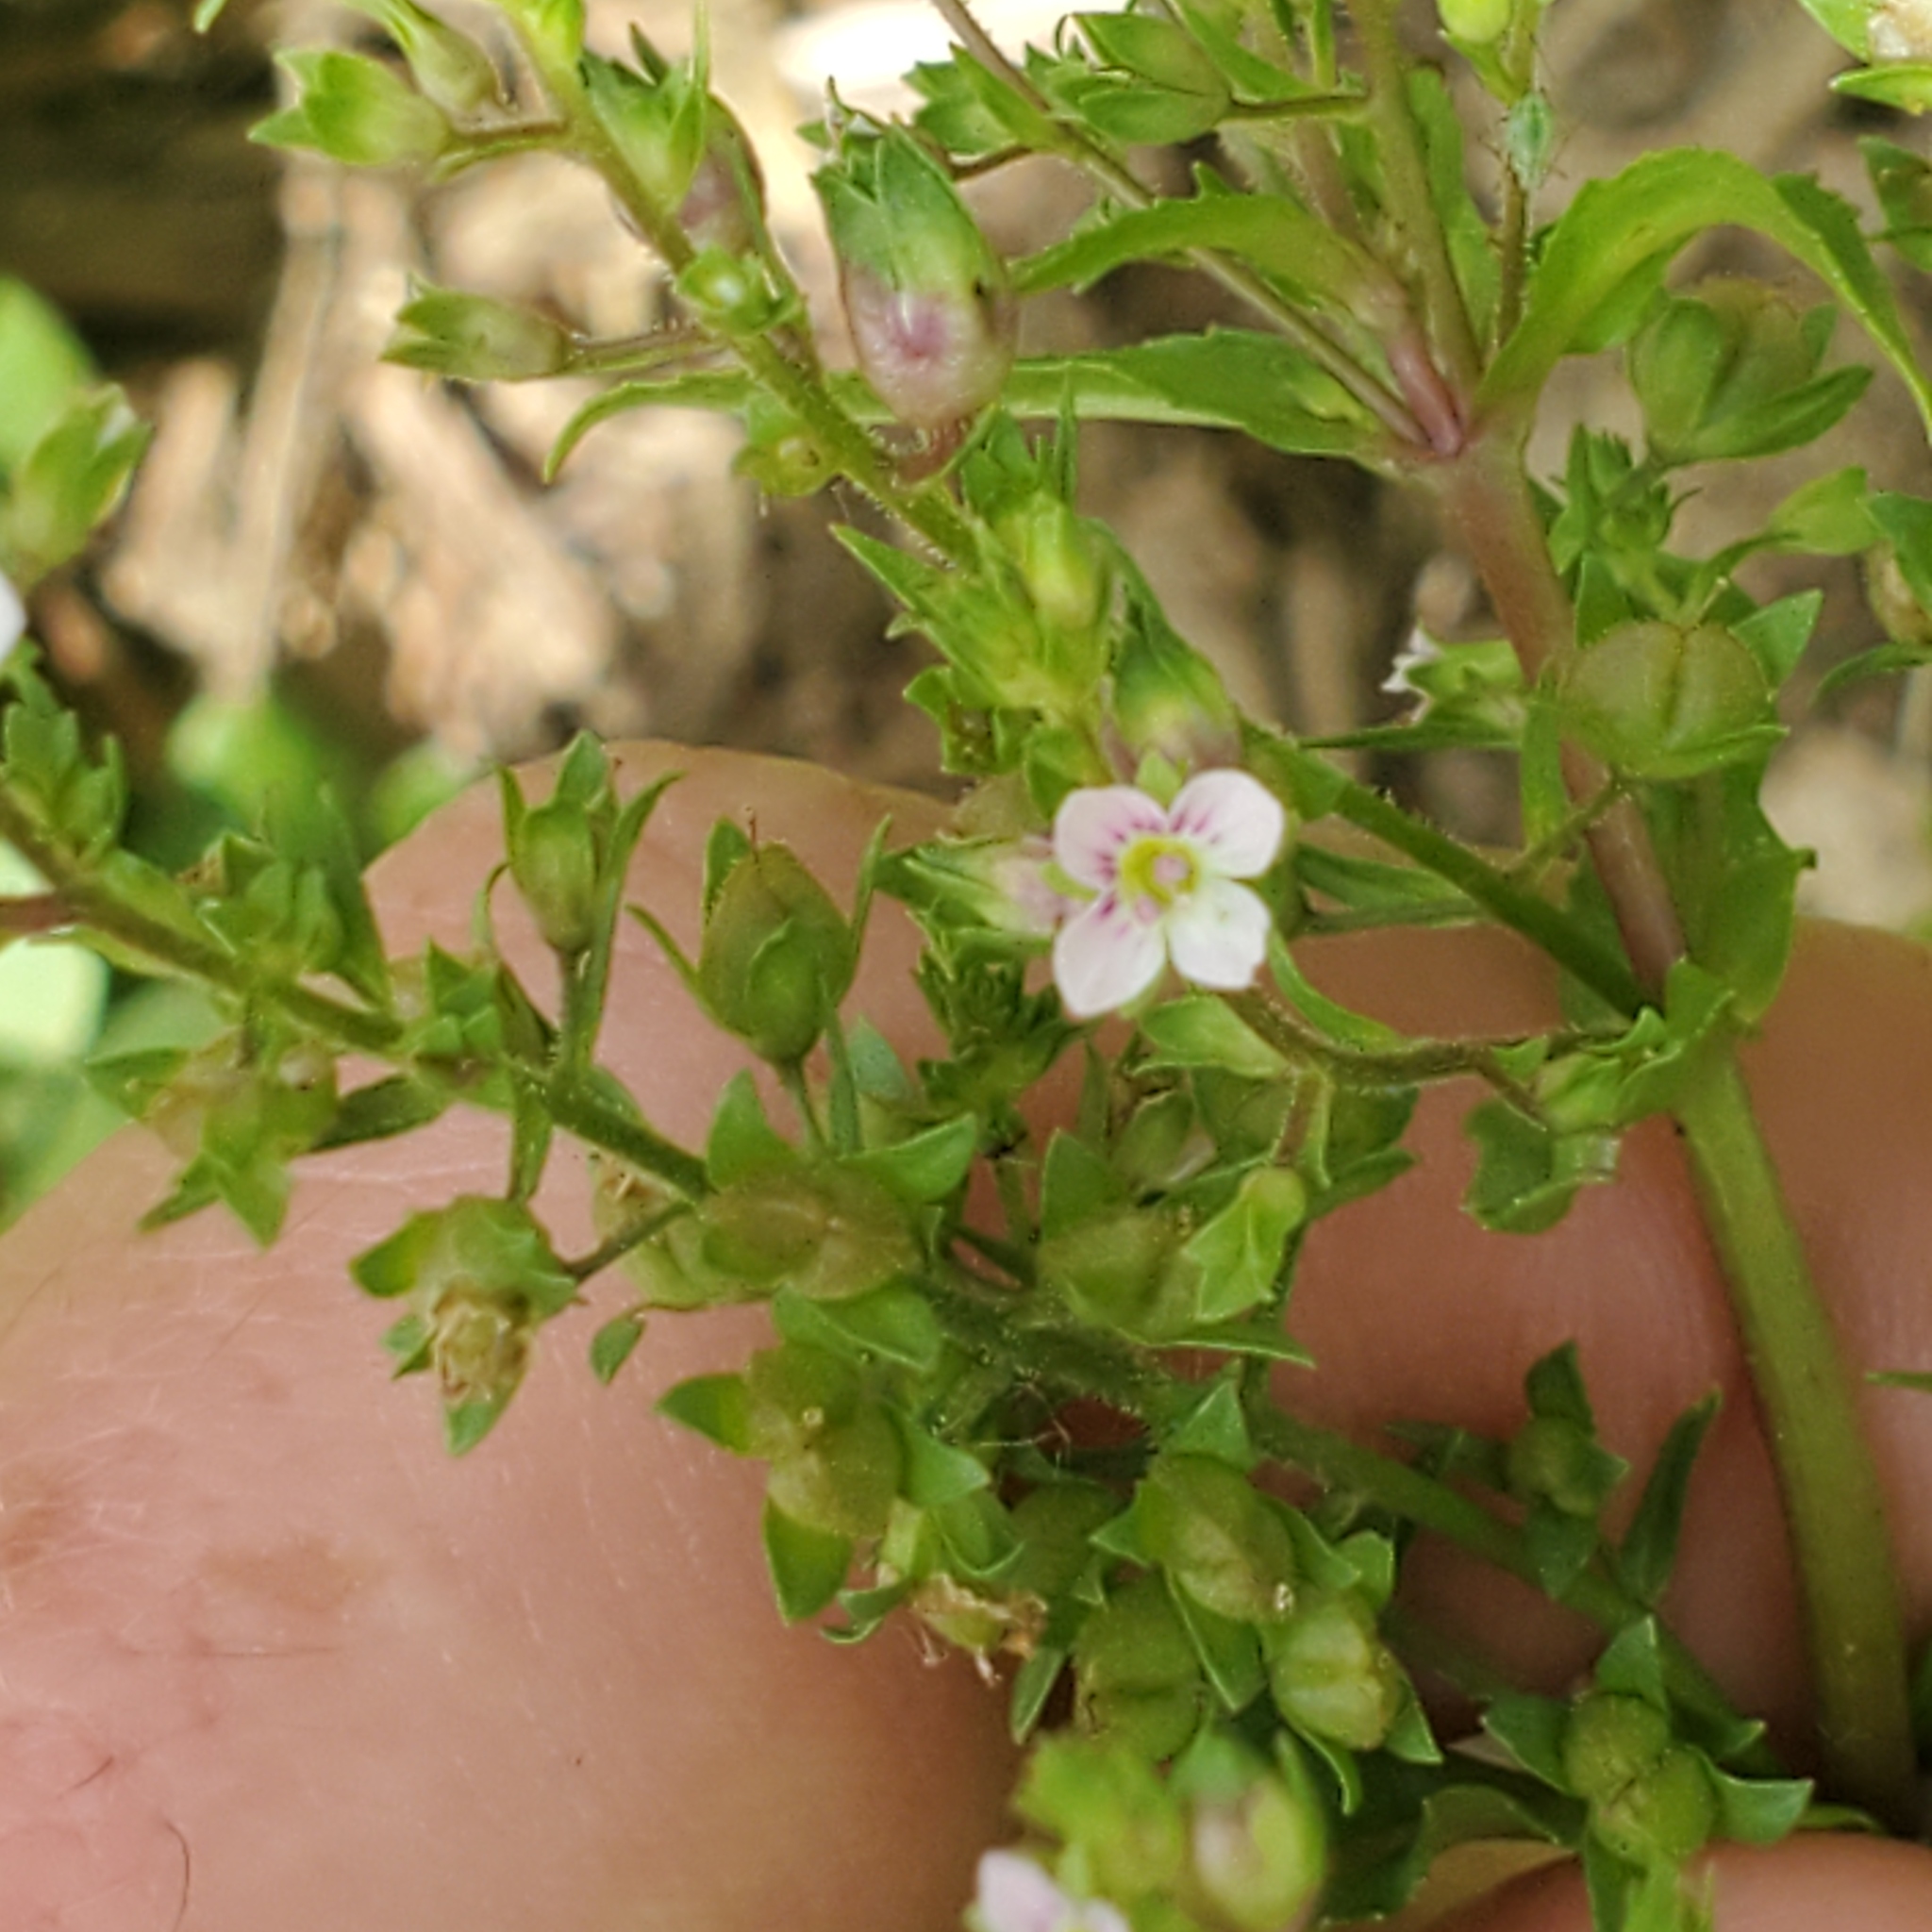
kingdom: Plantae
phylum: Tracheophyta
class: Magnoliopsida
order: Lamiales
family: Plantaginaceae
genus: Veronica
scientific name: Veronica catenata
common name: Pink water-speedwell
